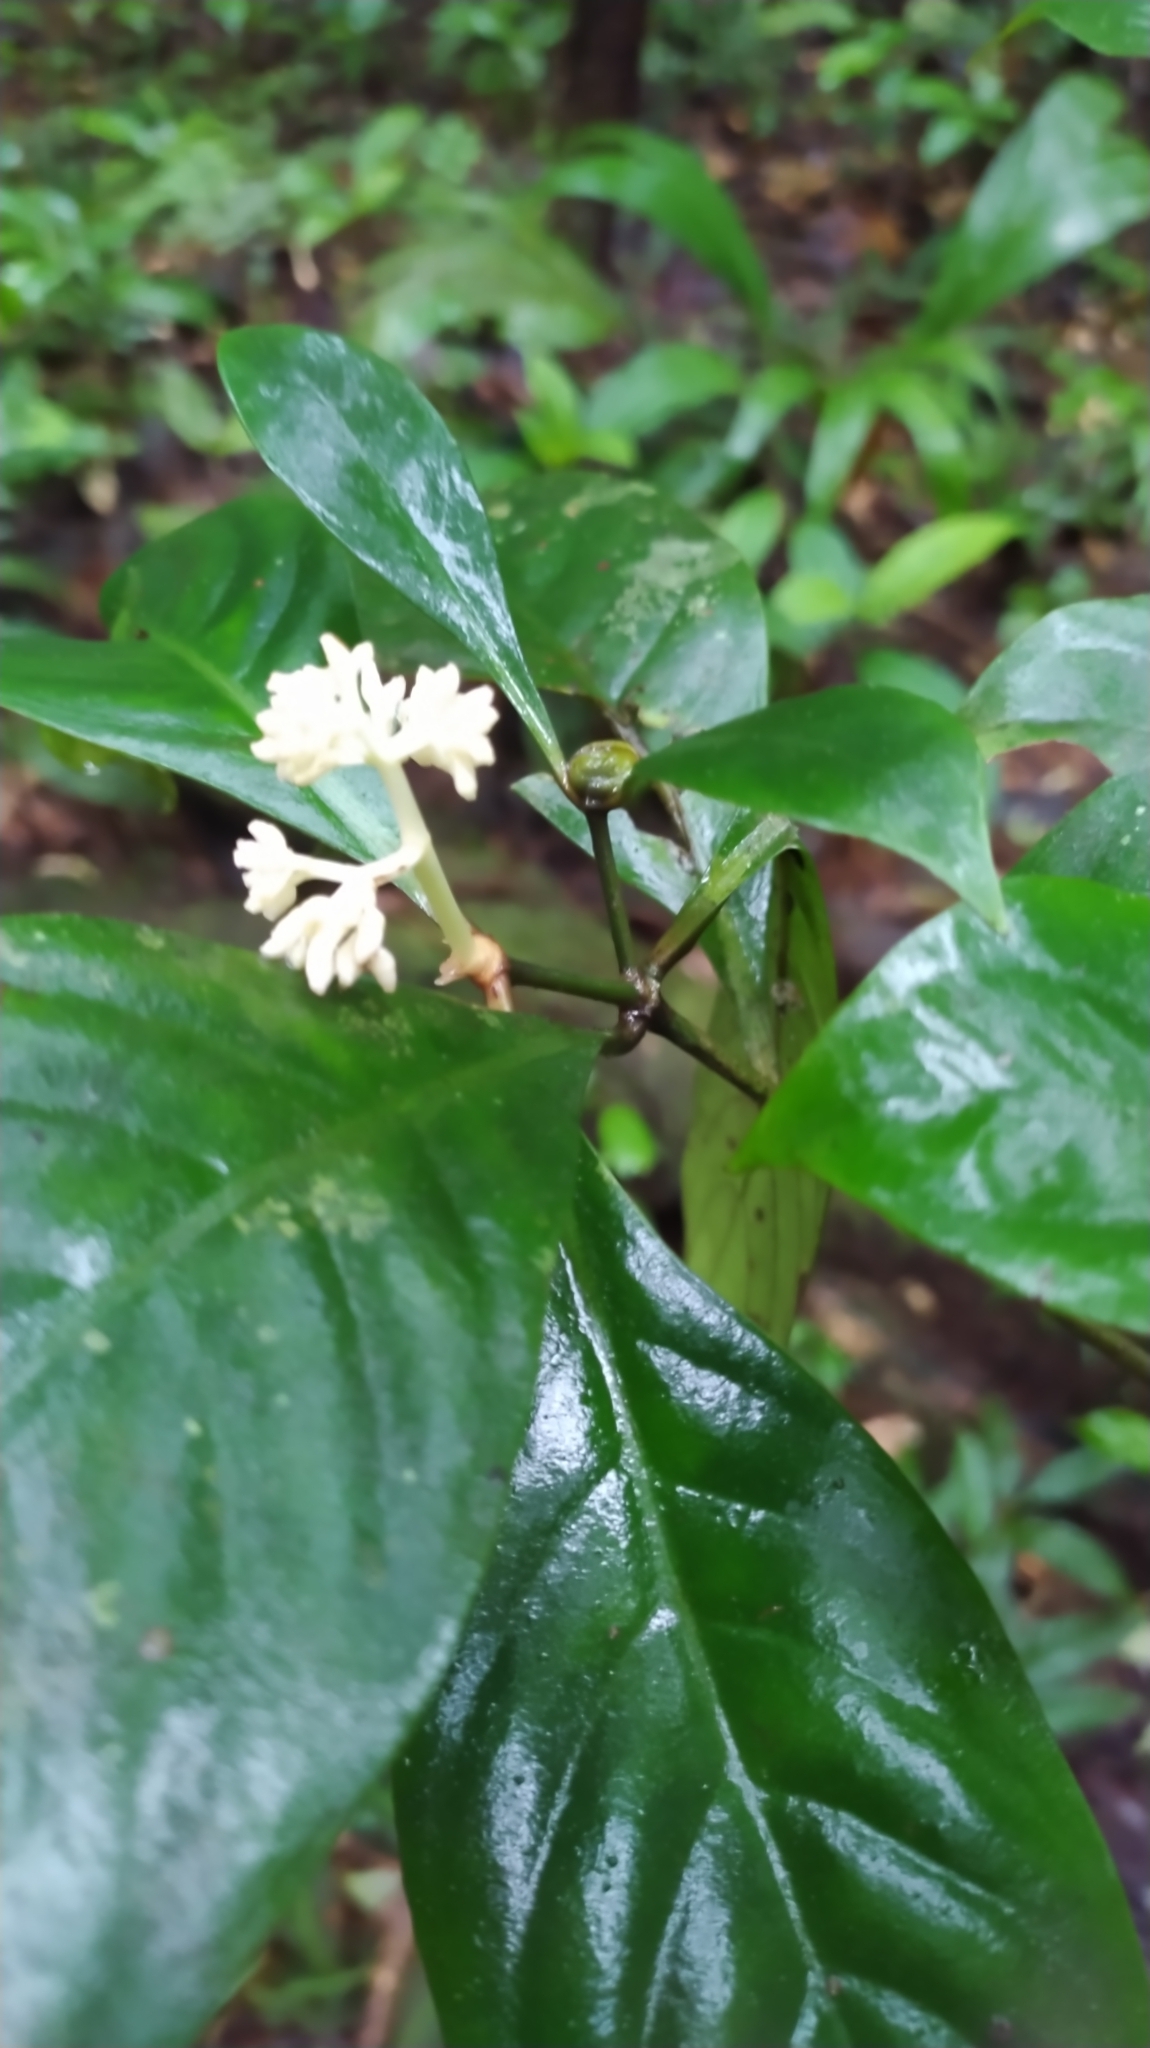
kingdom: Plantae
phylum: Tracheophyta
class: Magnoliopsida
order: Gentianales
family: Rubiaceae
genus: Psychotria
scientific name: Psychotria cupularis
